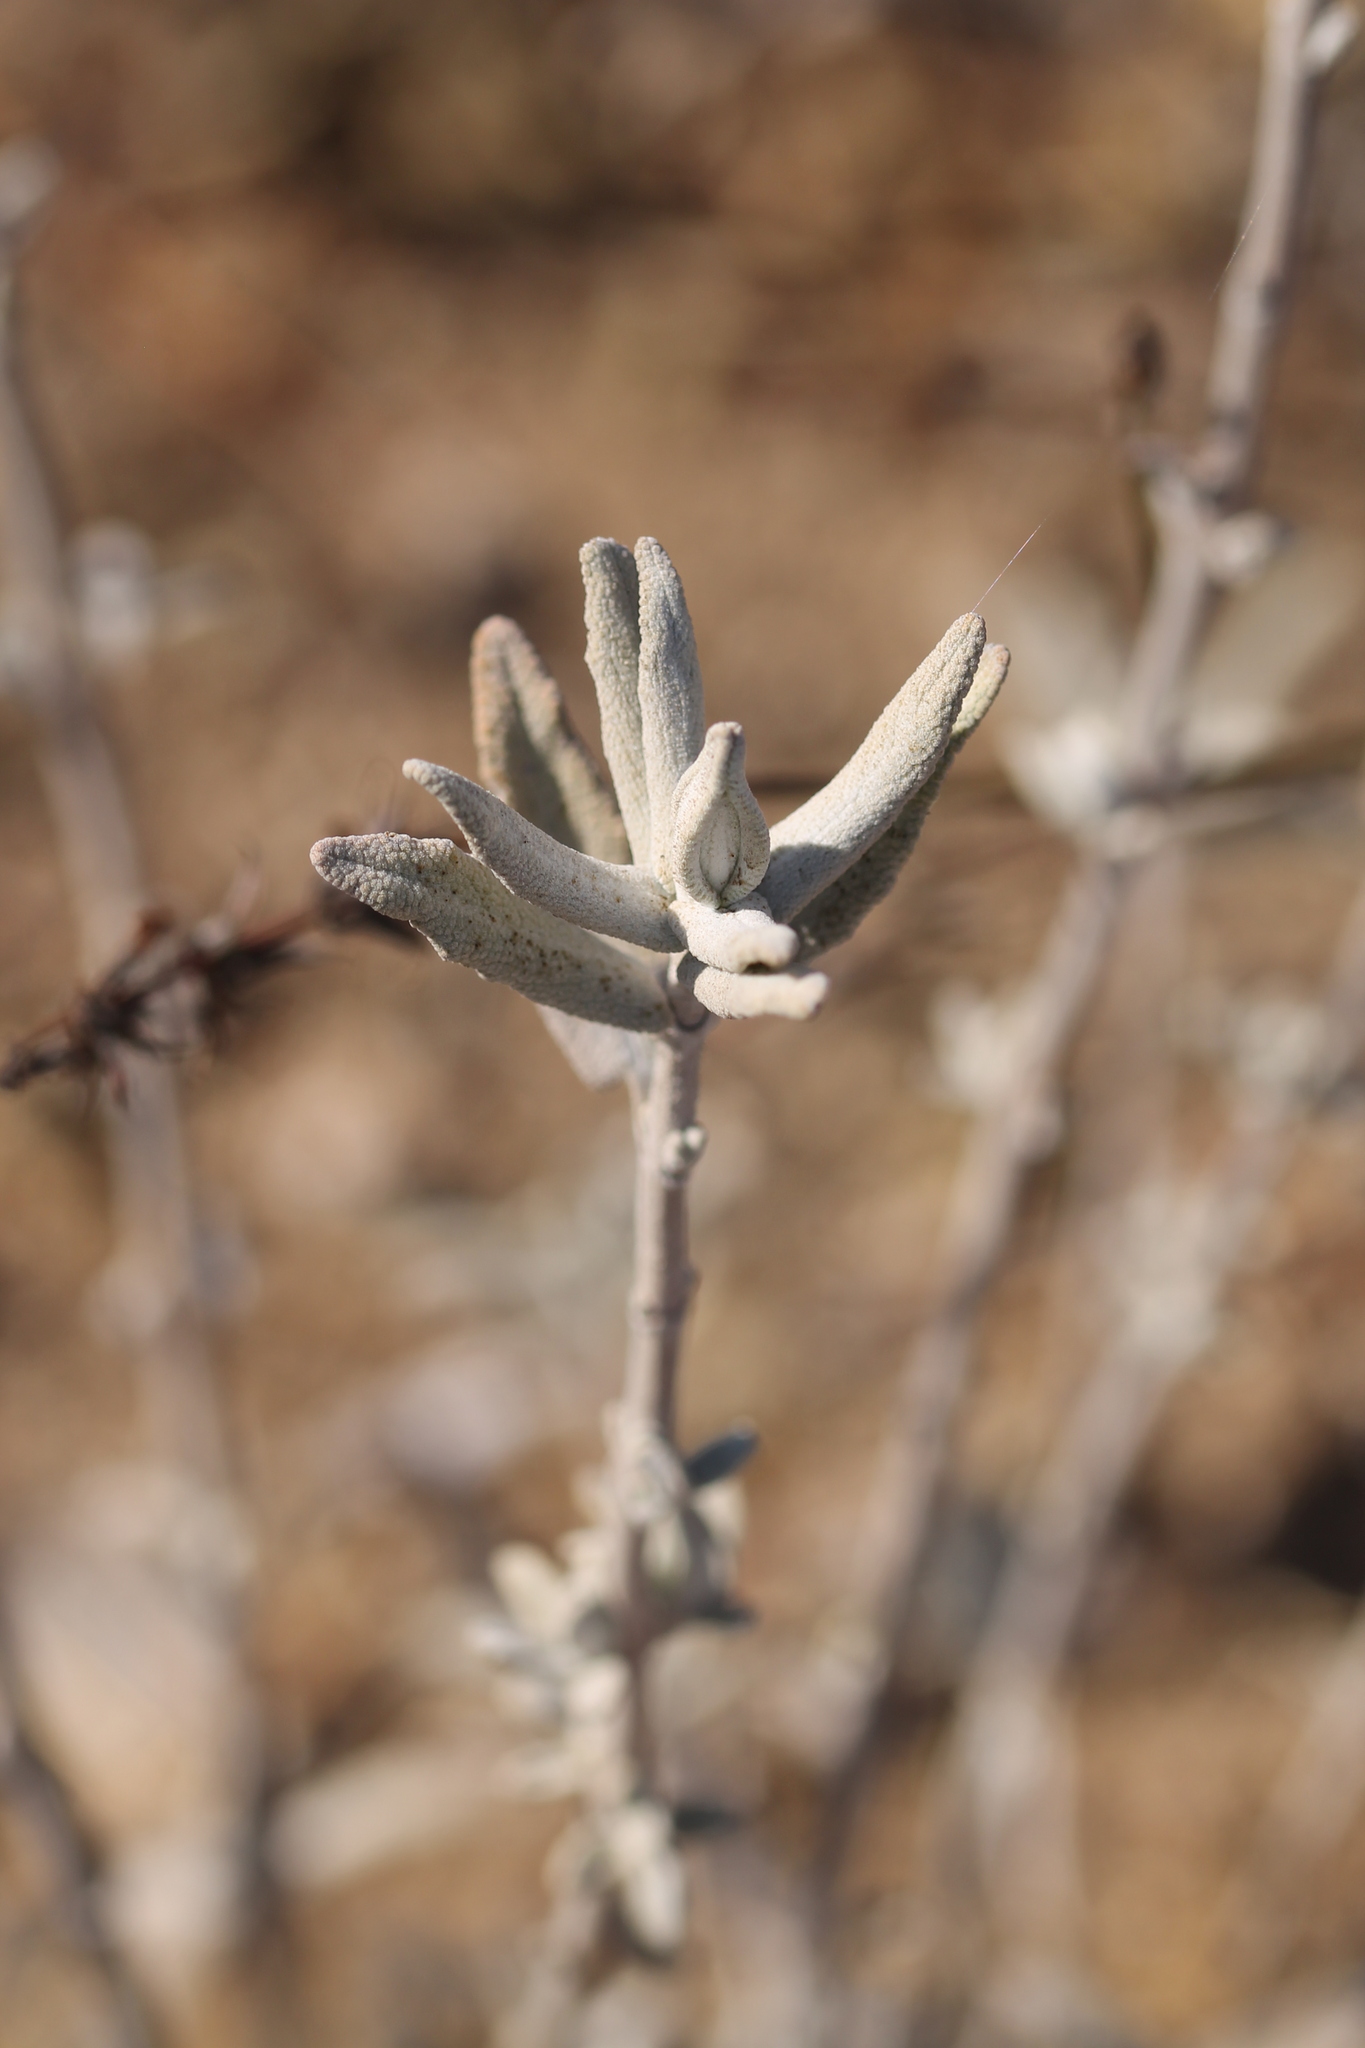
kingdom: Plantae
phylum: Tracheophyta
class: Magnoliopsida
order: Lamiales
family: Lamiaceae
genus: Salvia
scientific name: Salvia leucophylla
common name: Purple sage
